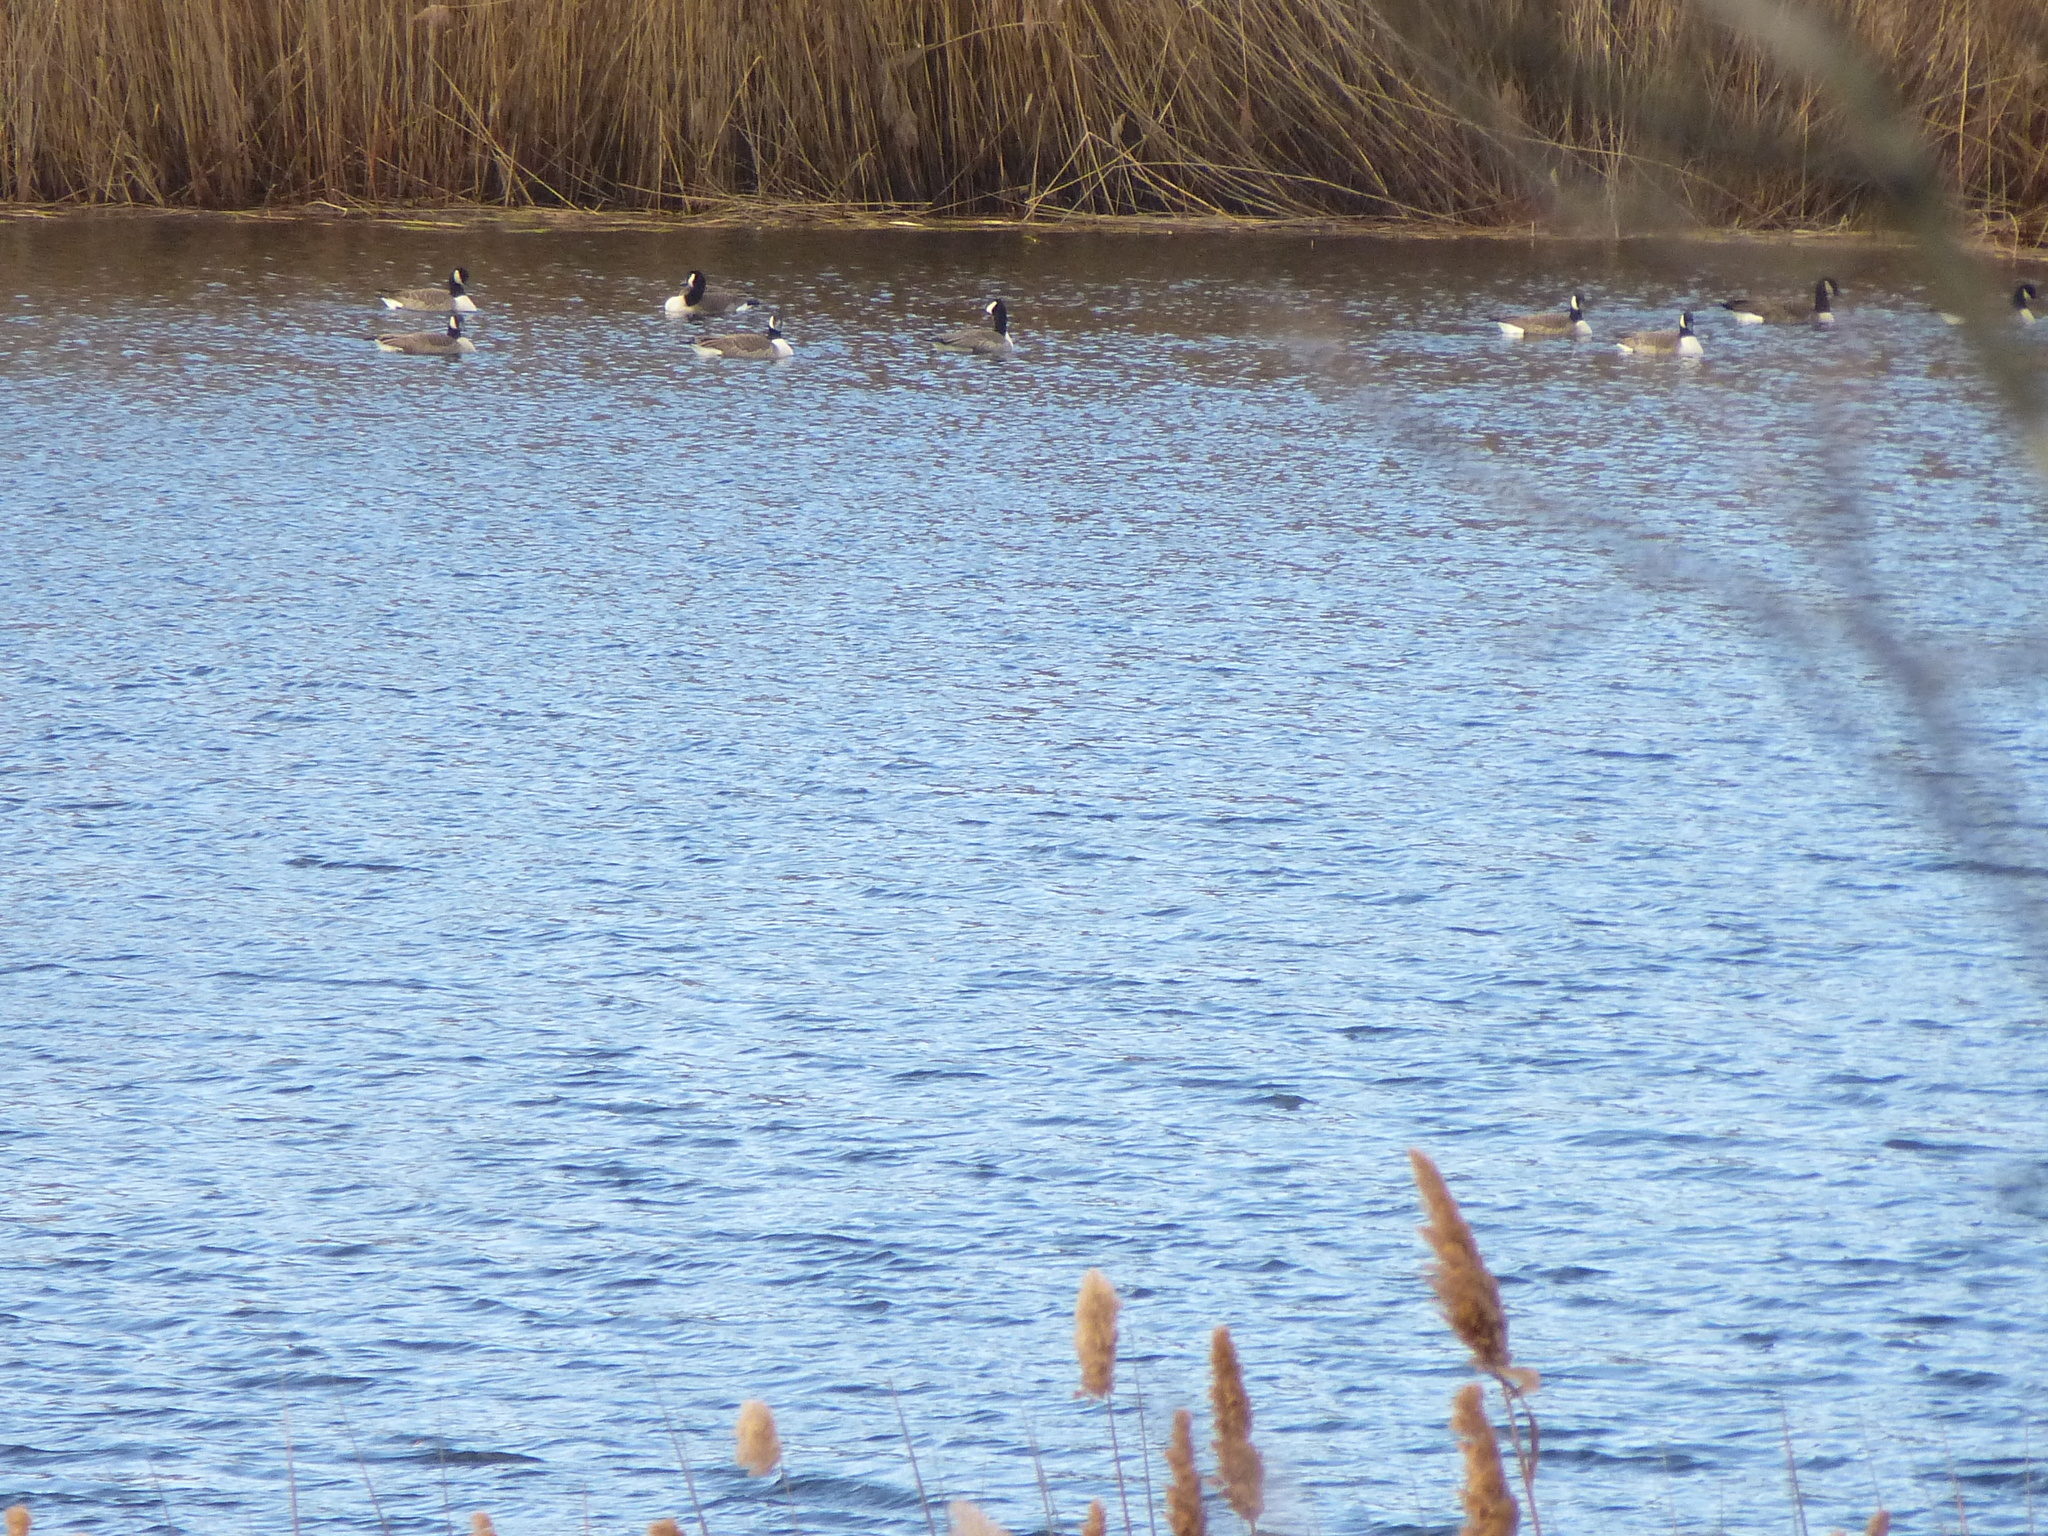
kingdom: Animalia
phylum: Chordata
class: Aves
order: Anseriformes
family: Anatidae
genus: Branta
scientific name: Branta canadensis
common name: Canada goose
